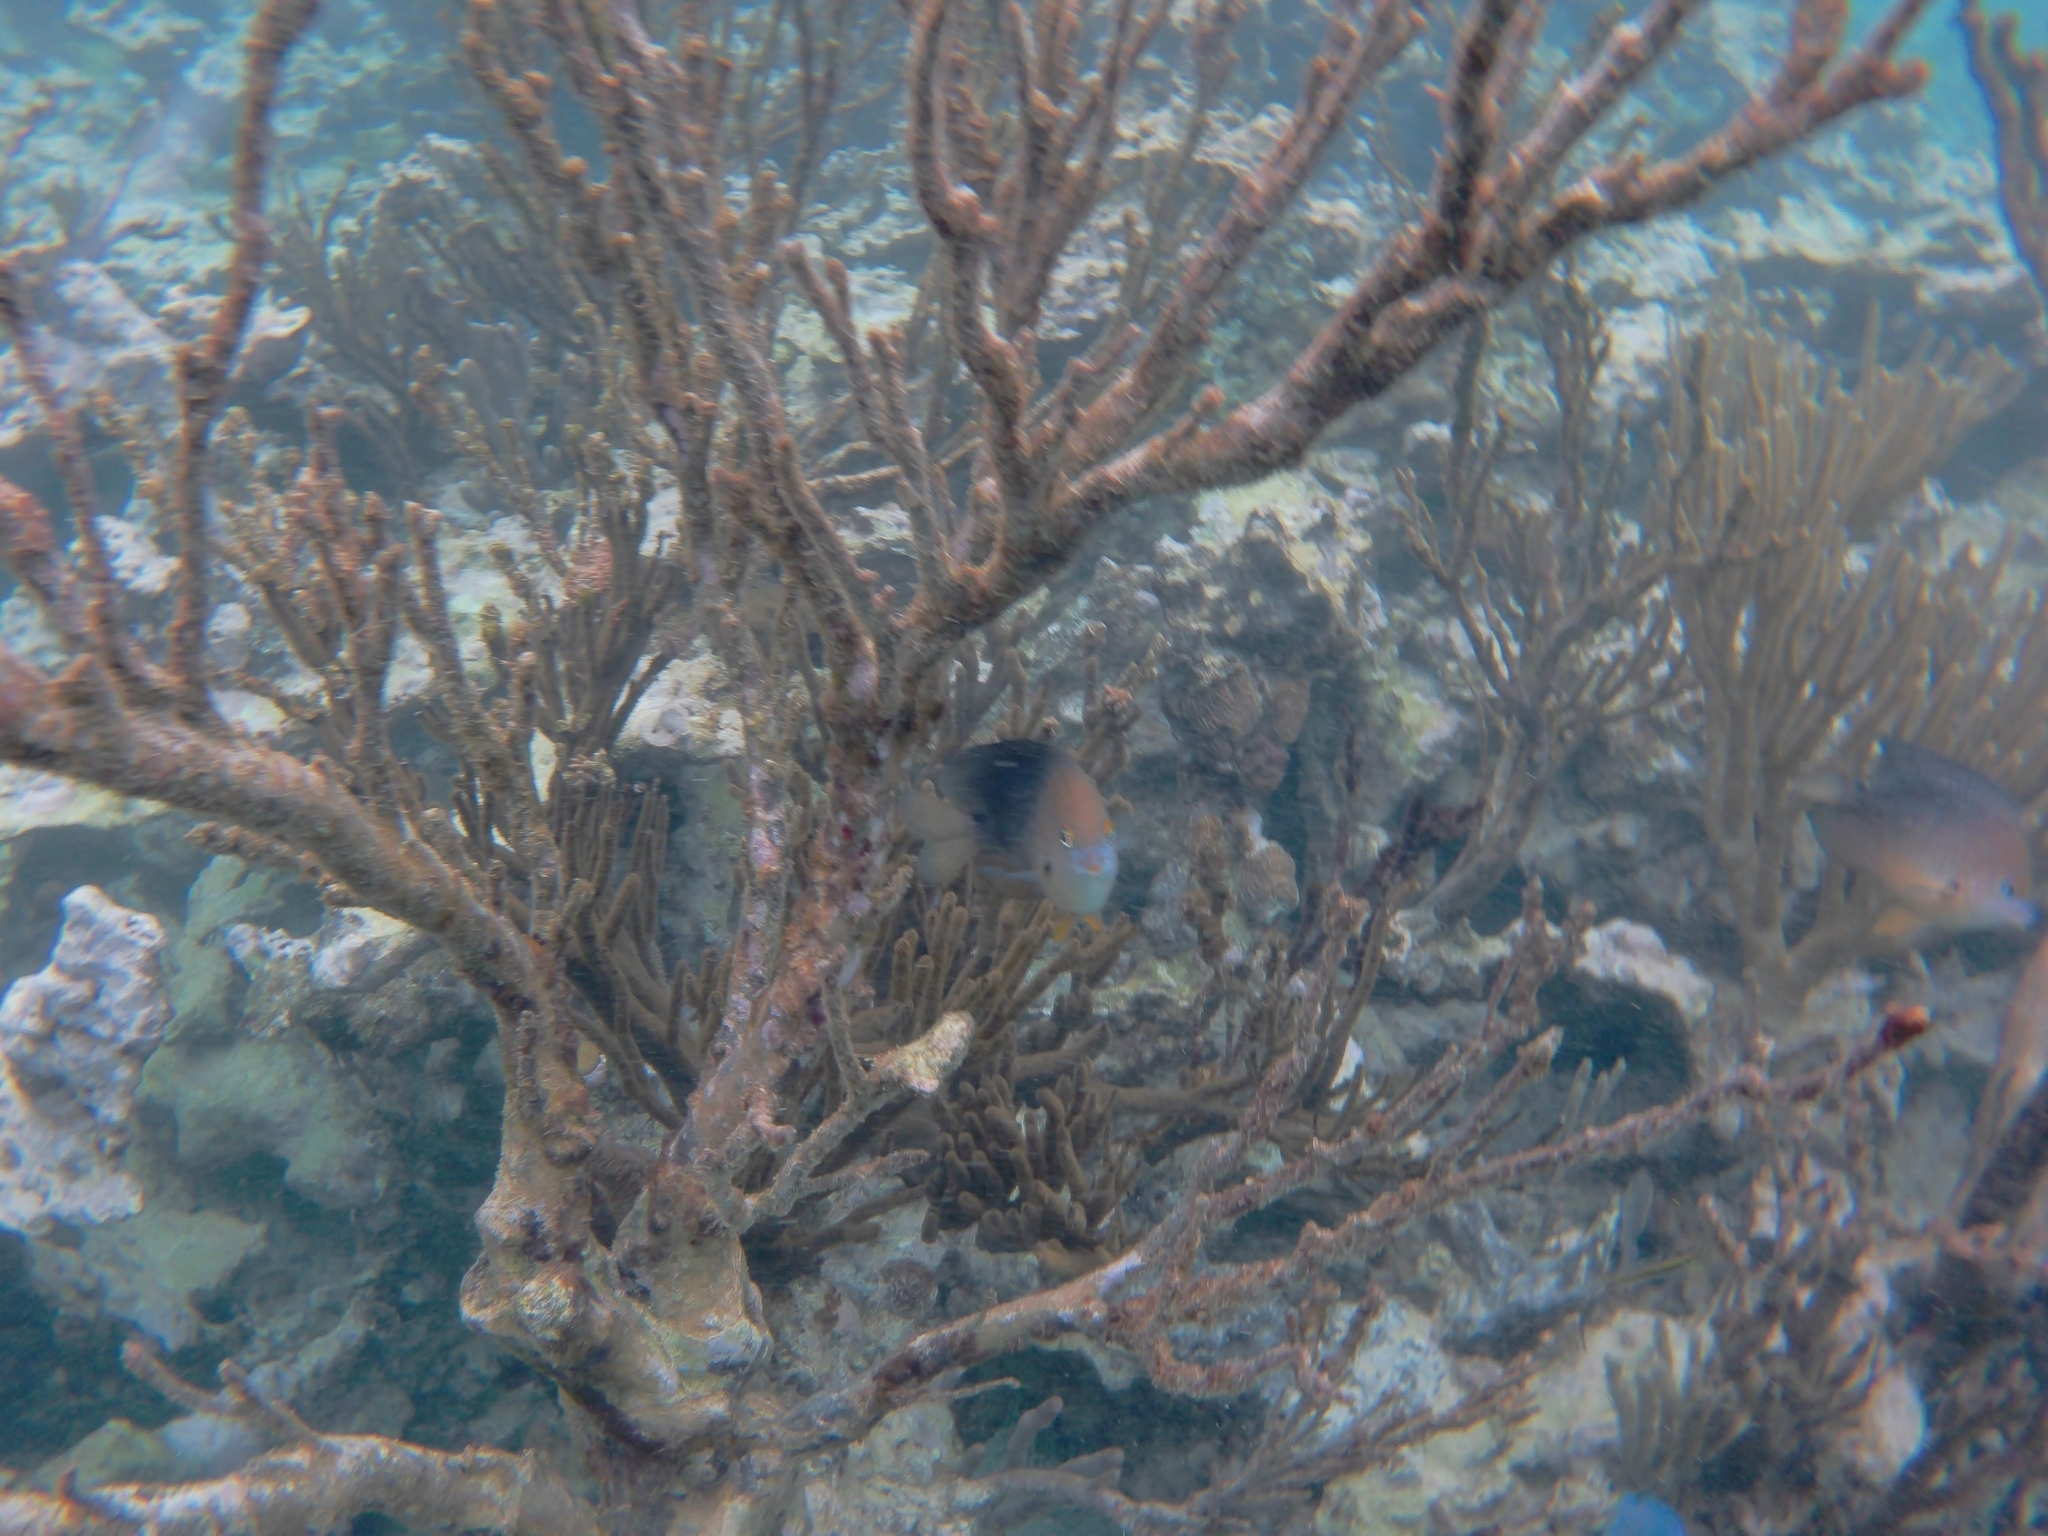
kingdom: Animalia
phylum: Chordata
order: Perciformes
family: Pomacentridae
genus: Stegastes
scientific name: Stegastes planifrons
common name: Threespot damselfish
